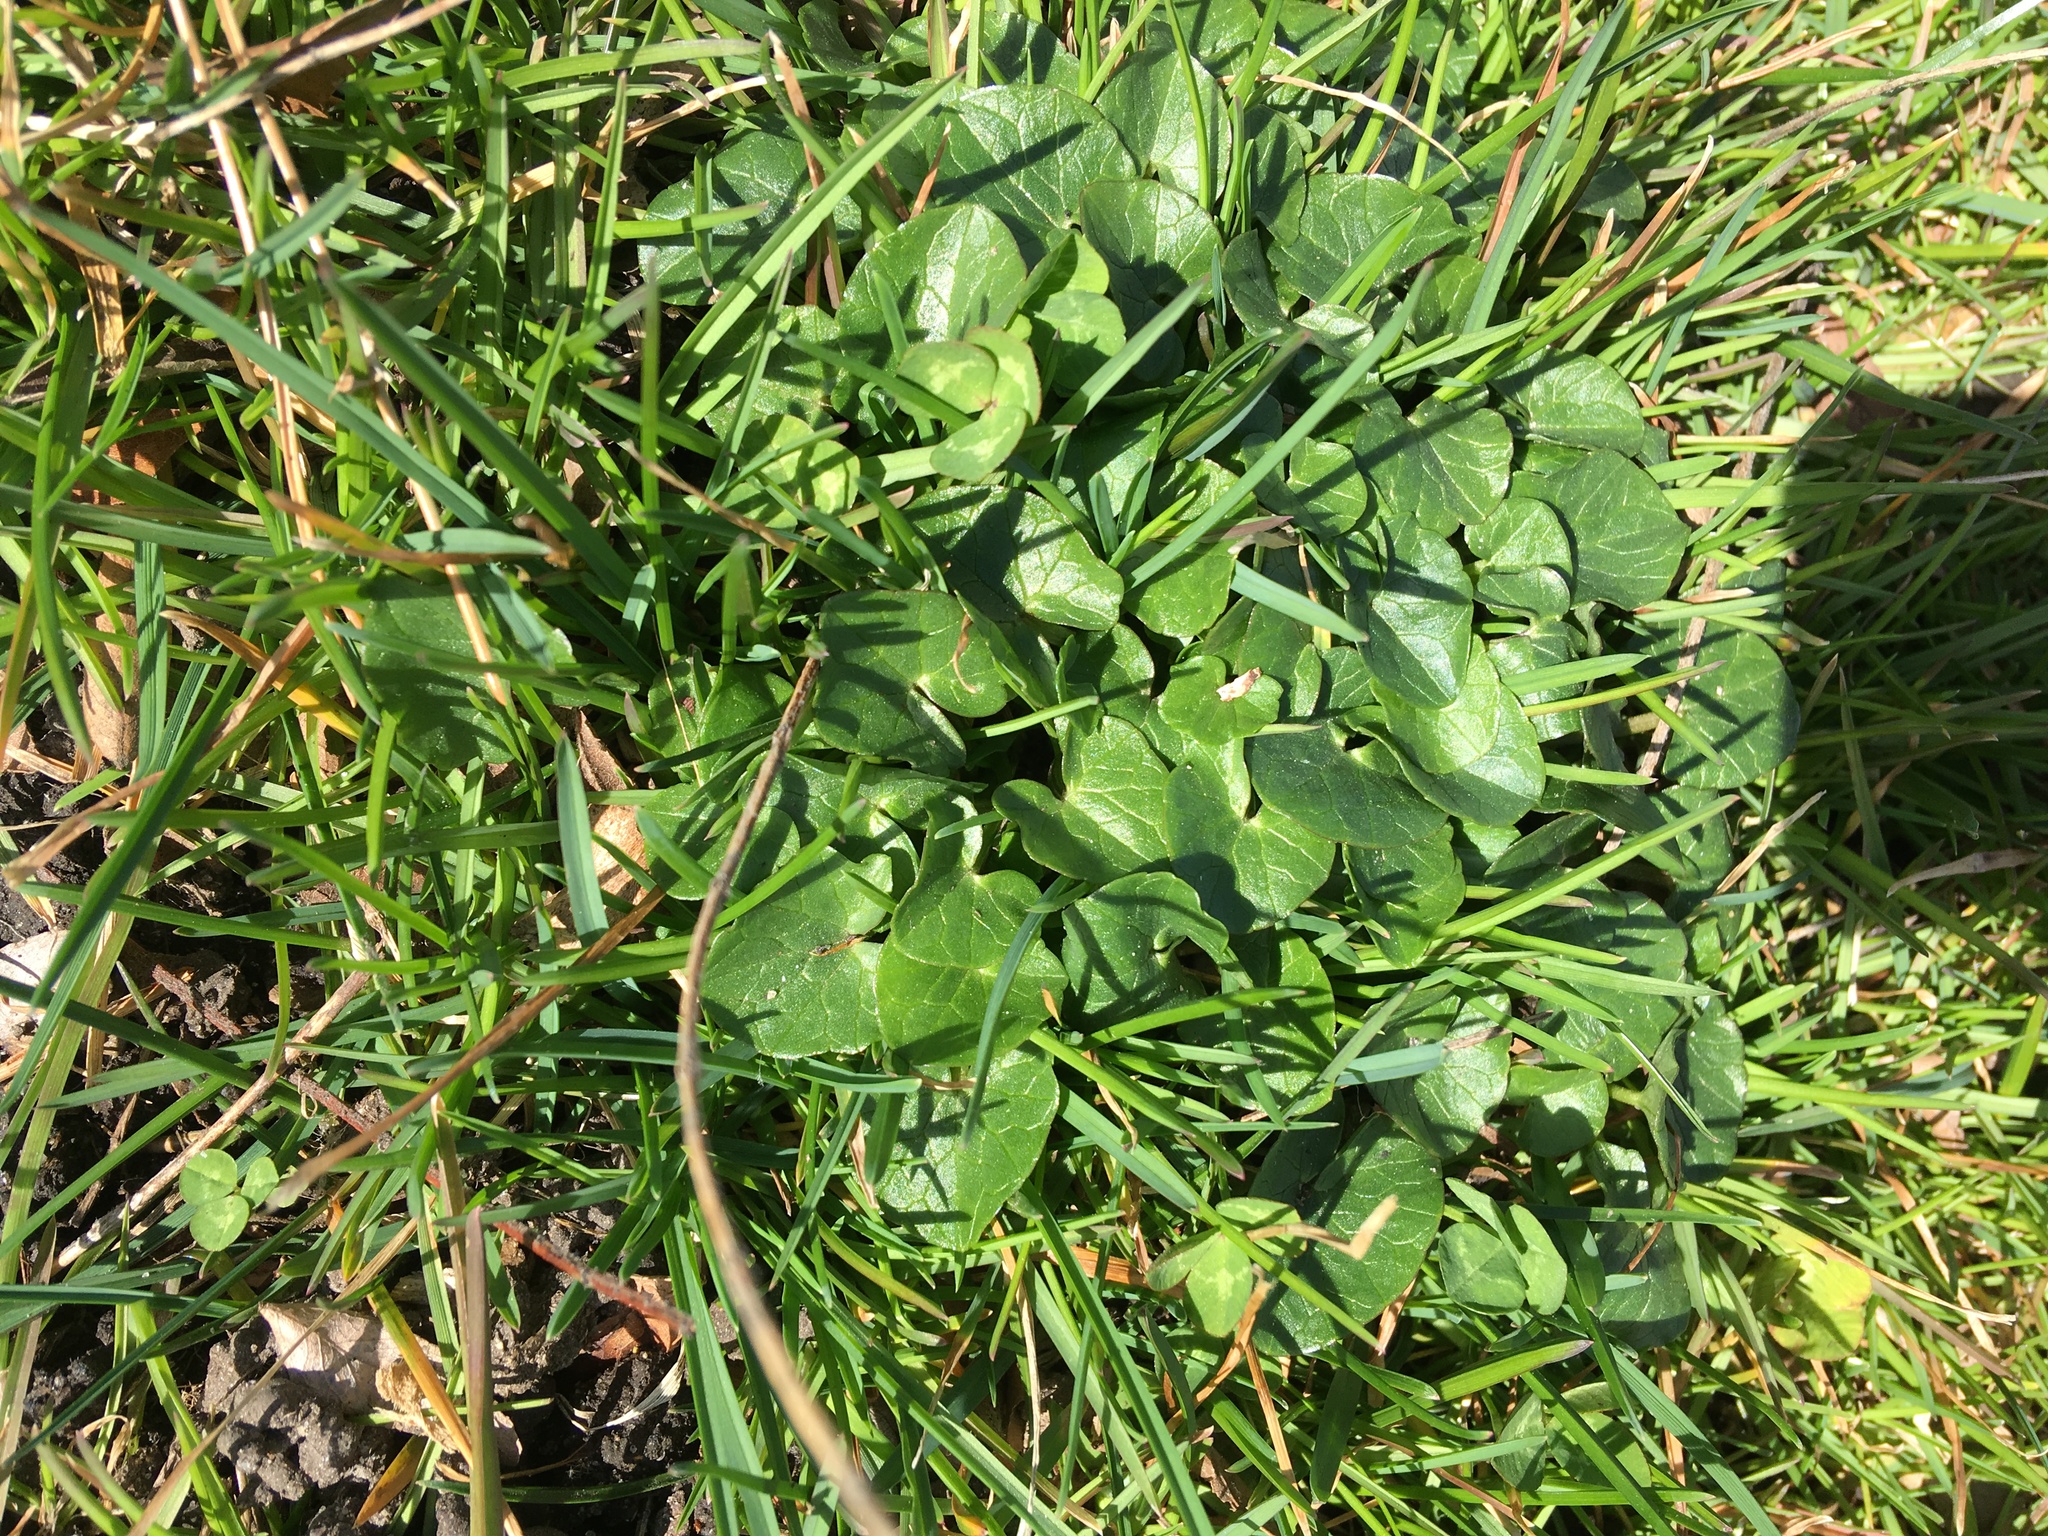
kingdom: Plantae
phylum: Tracheophyta
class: Magnoliopsida
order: Ranunculales
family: Ranunculaceae
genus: Ficaria
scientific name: Ficaria verna
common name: Lesser celandine
